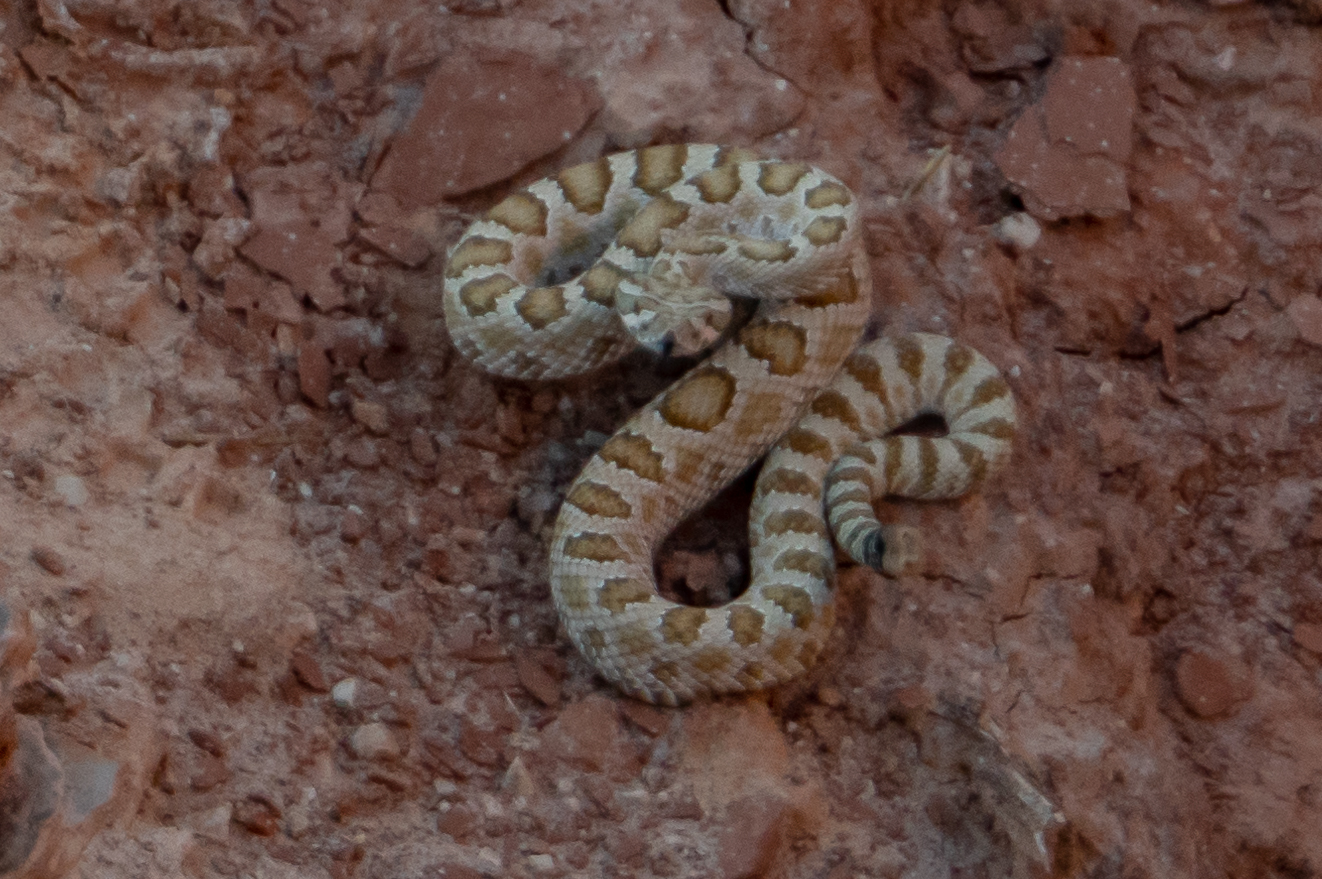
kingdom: Animalia
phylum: Chordata
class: Squamata
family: Viperidae
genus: Crotalus
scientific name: Crotalus oreganus
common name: Abyssus
